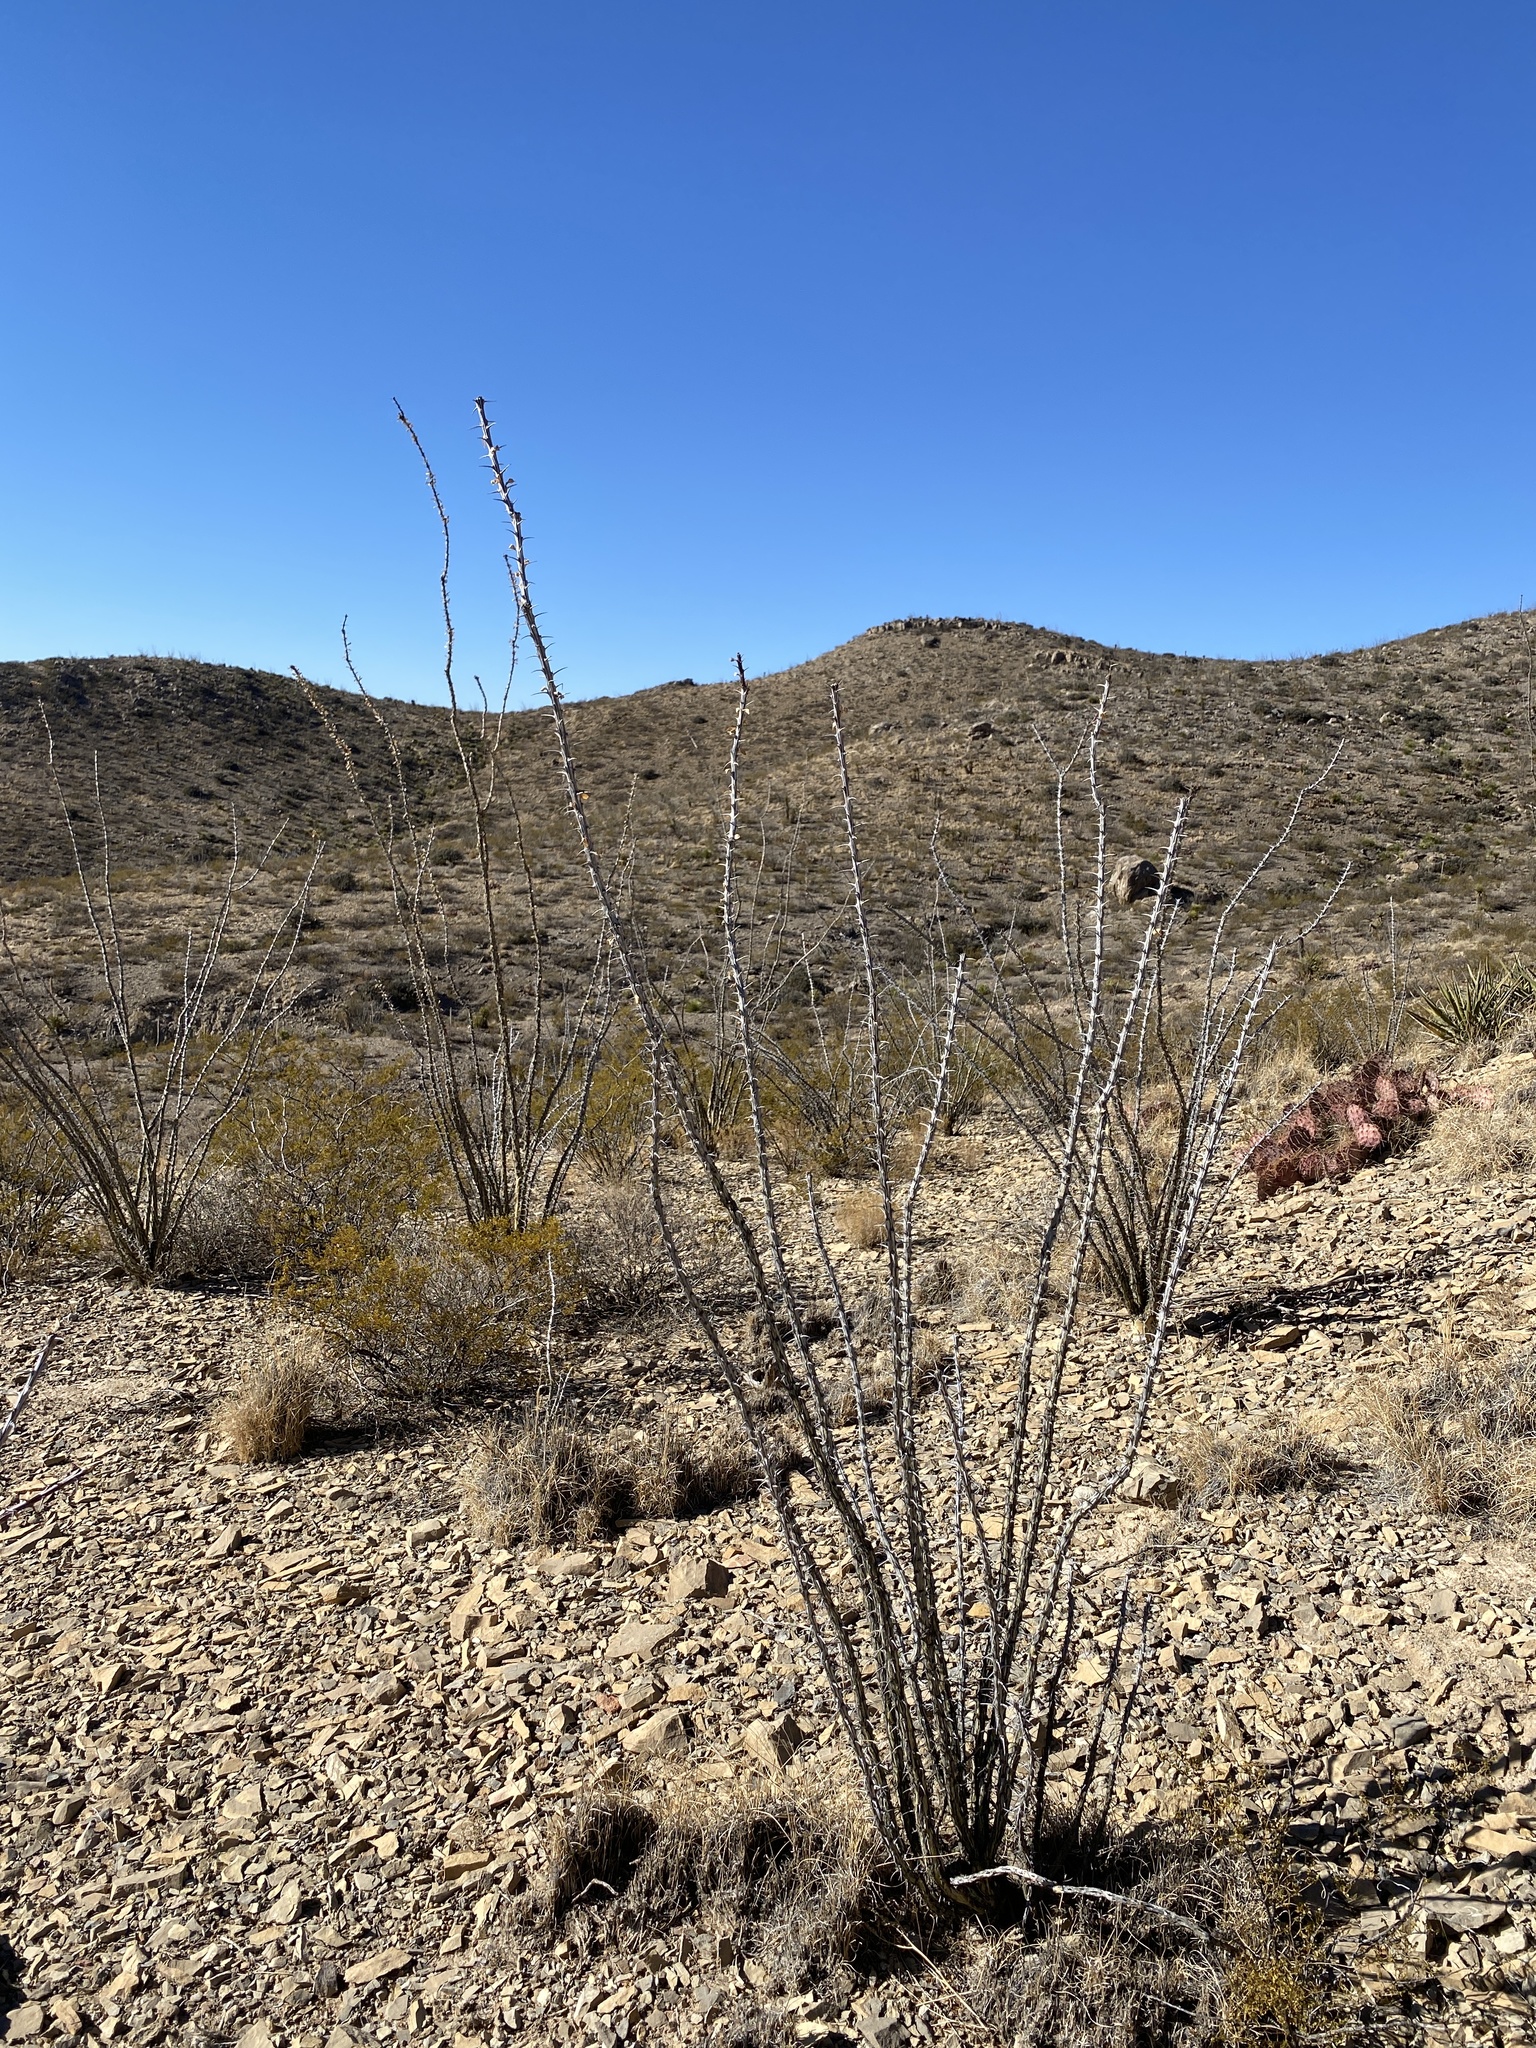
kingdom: Plantae
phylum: Tracheophyta
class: Magnoliopsida
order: Ericales
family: Fouquieriaceae
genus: Fouquieria
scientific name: Fouquieria splendens
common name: Vine-cactus
